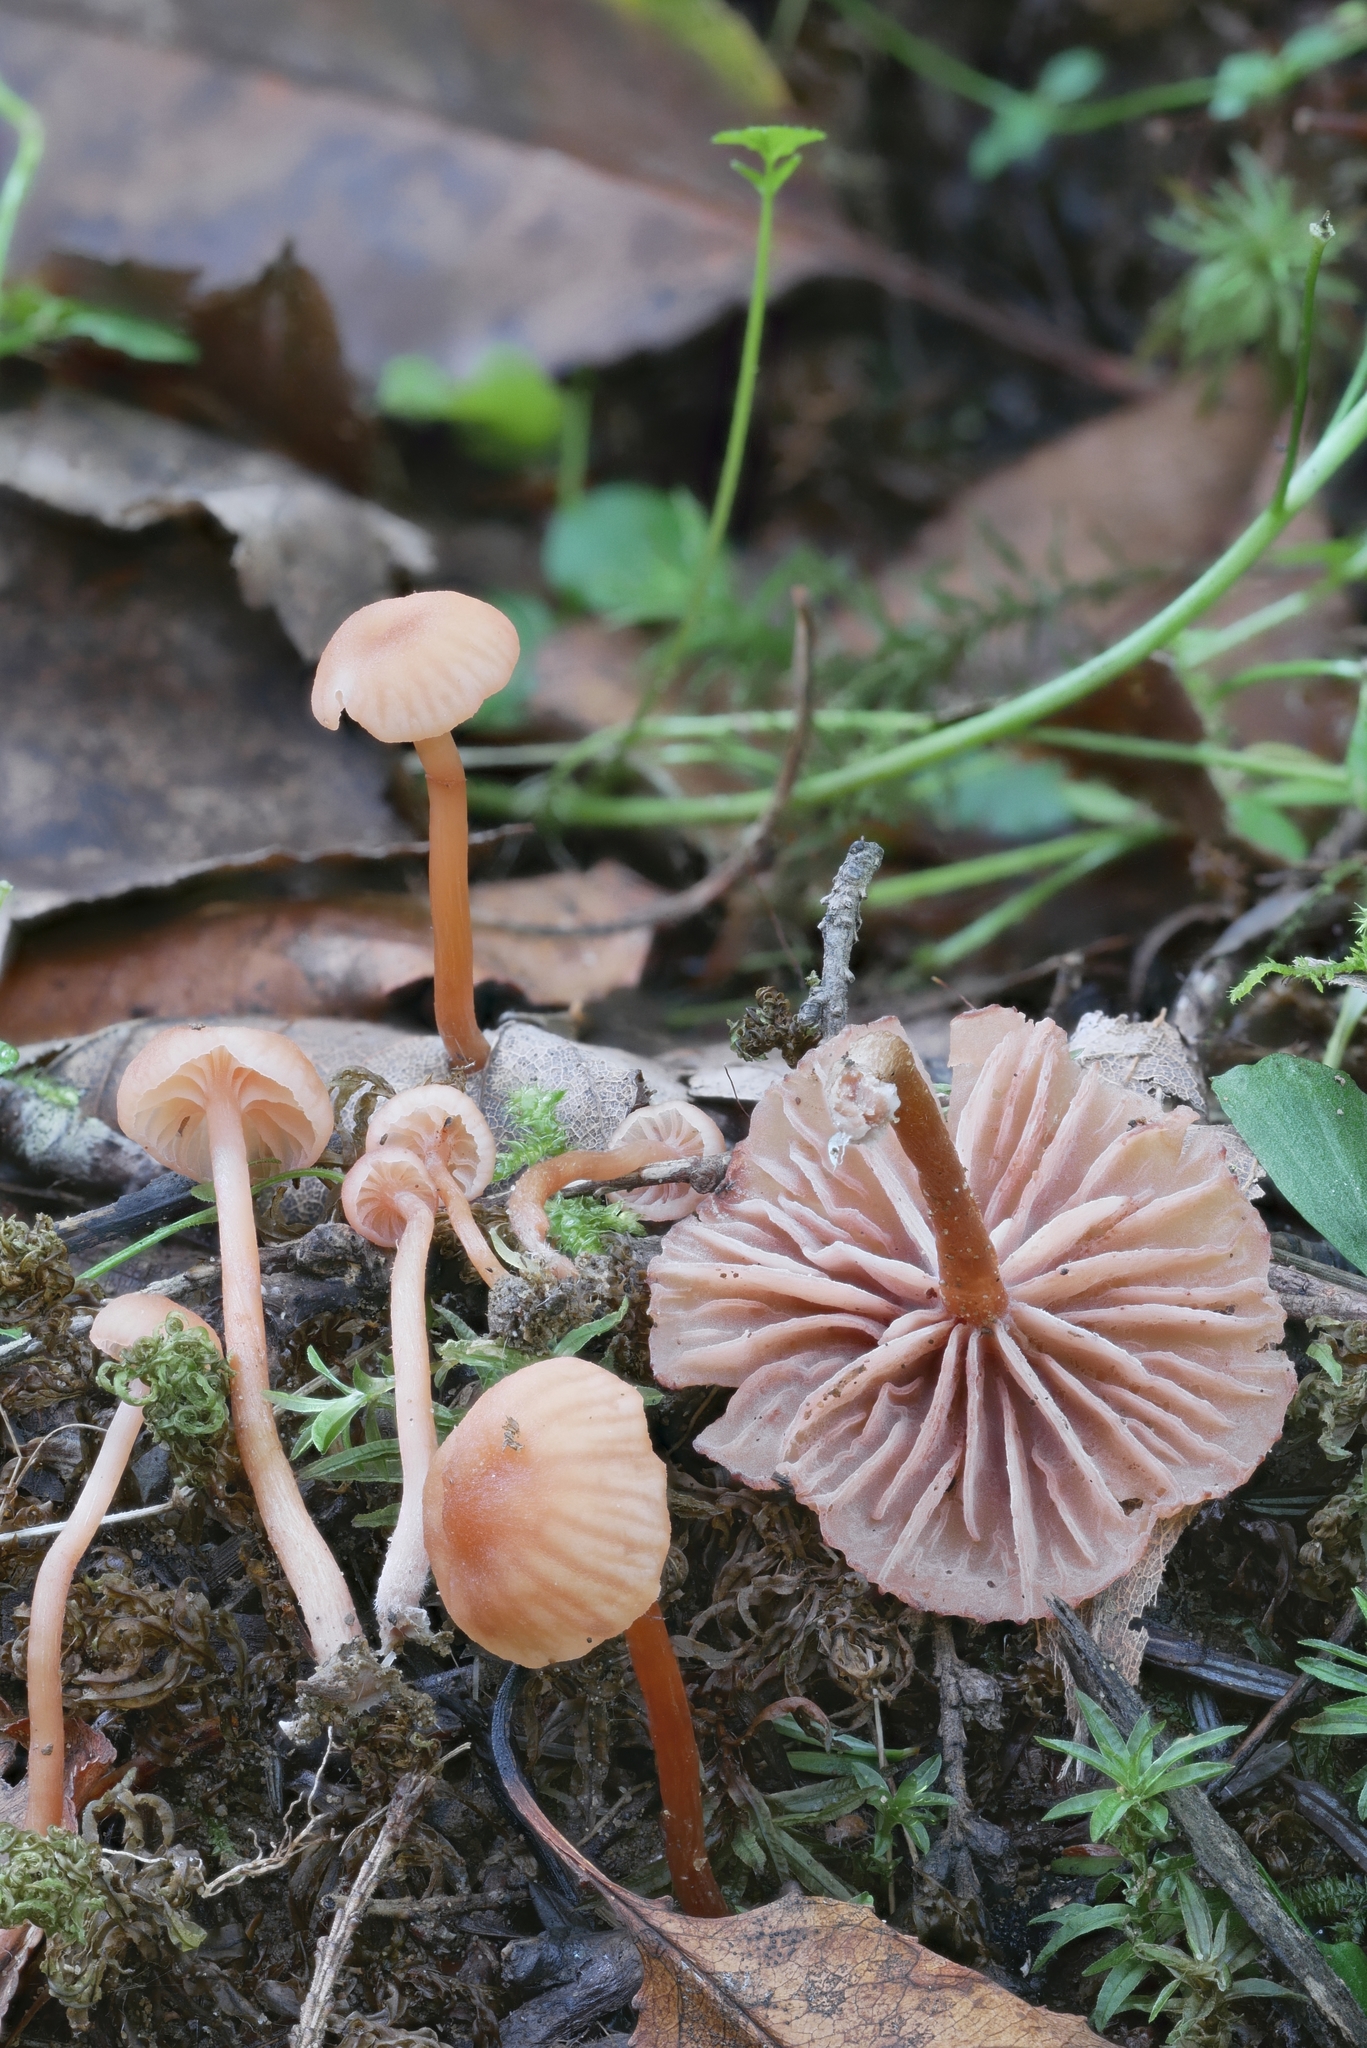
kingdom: Fungi
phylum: Basidiomycota
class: Agaricomycetes
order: Agaricales
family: Hydnangiaceae
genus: Laccaria
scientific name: Laccaria ohiensis
